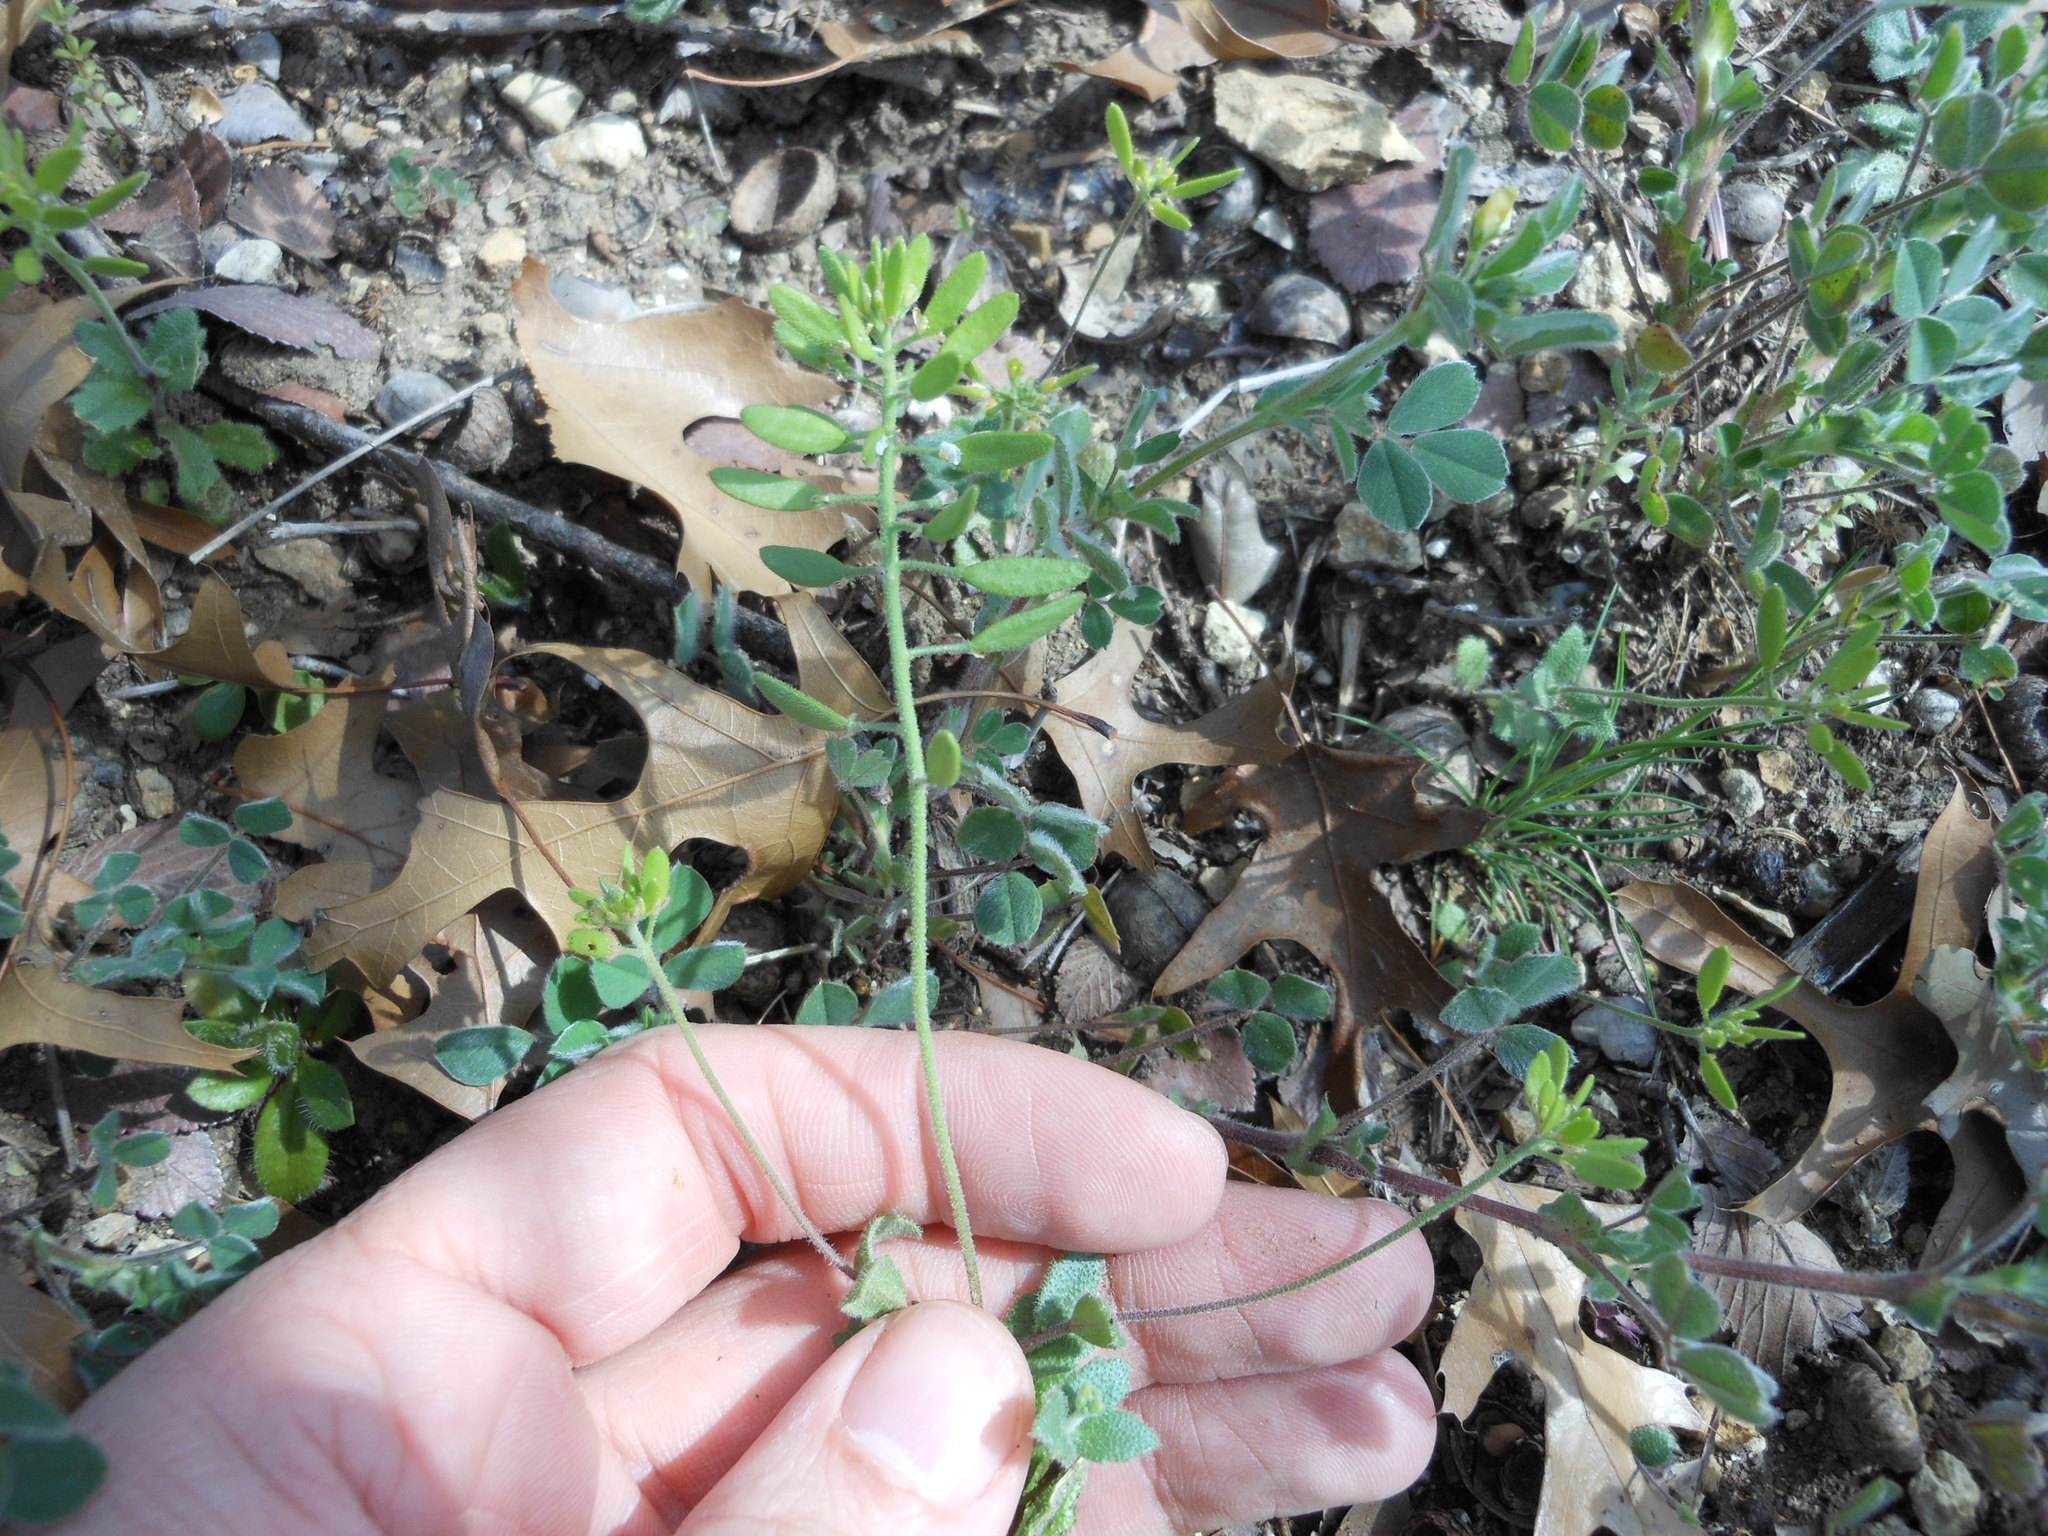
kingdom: Plantae
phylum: Tracheophyta
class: Magnoliopsida
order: Brassicales
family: Brassicaceae
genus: Tomostima
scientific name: Tomostima cuneifolia
